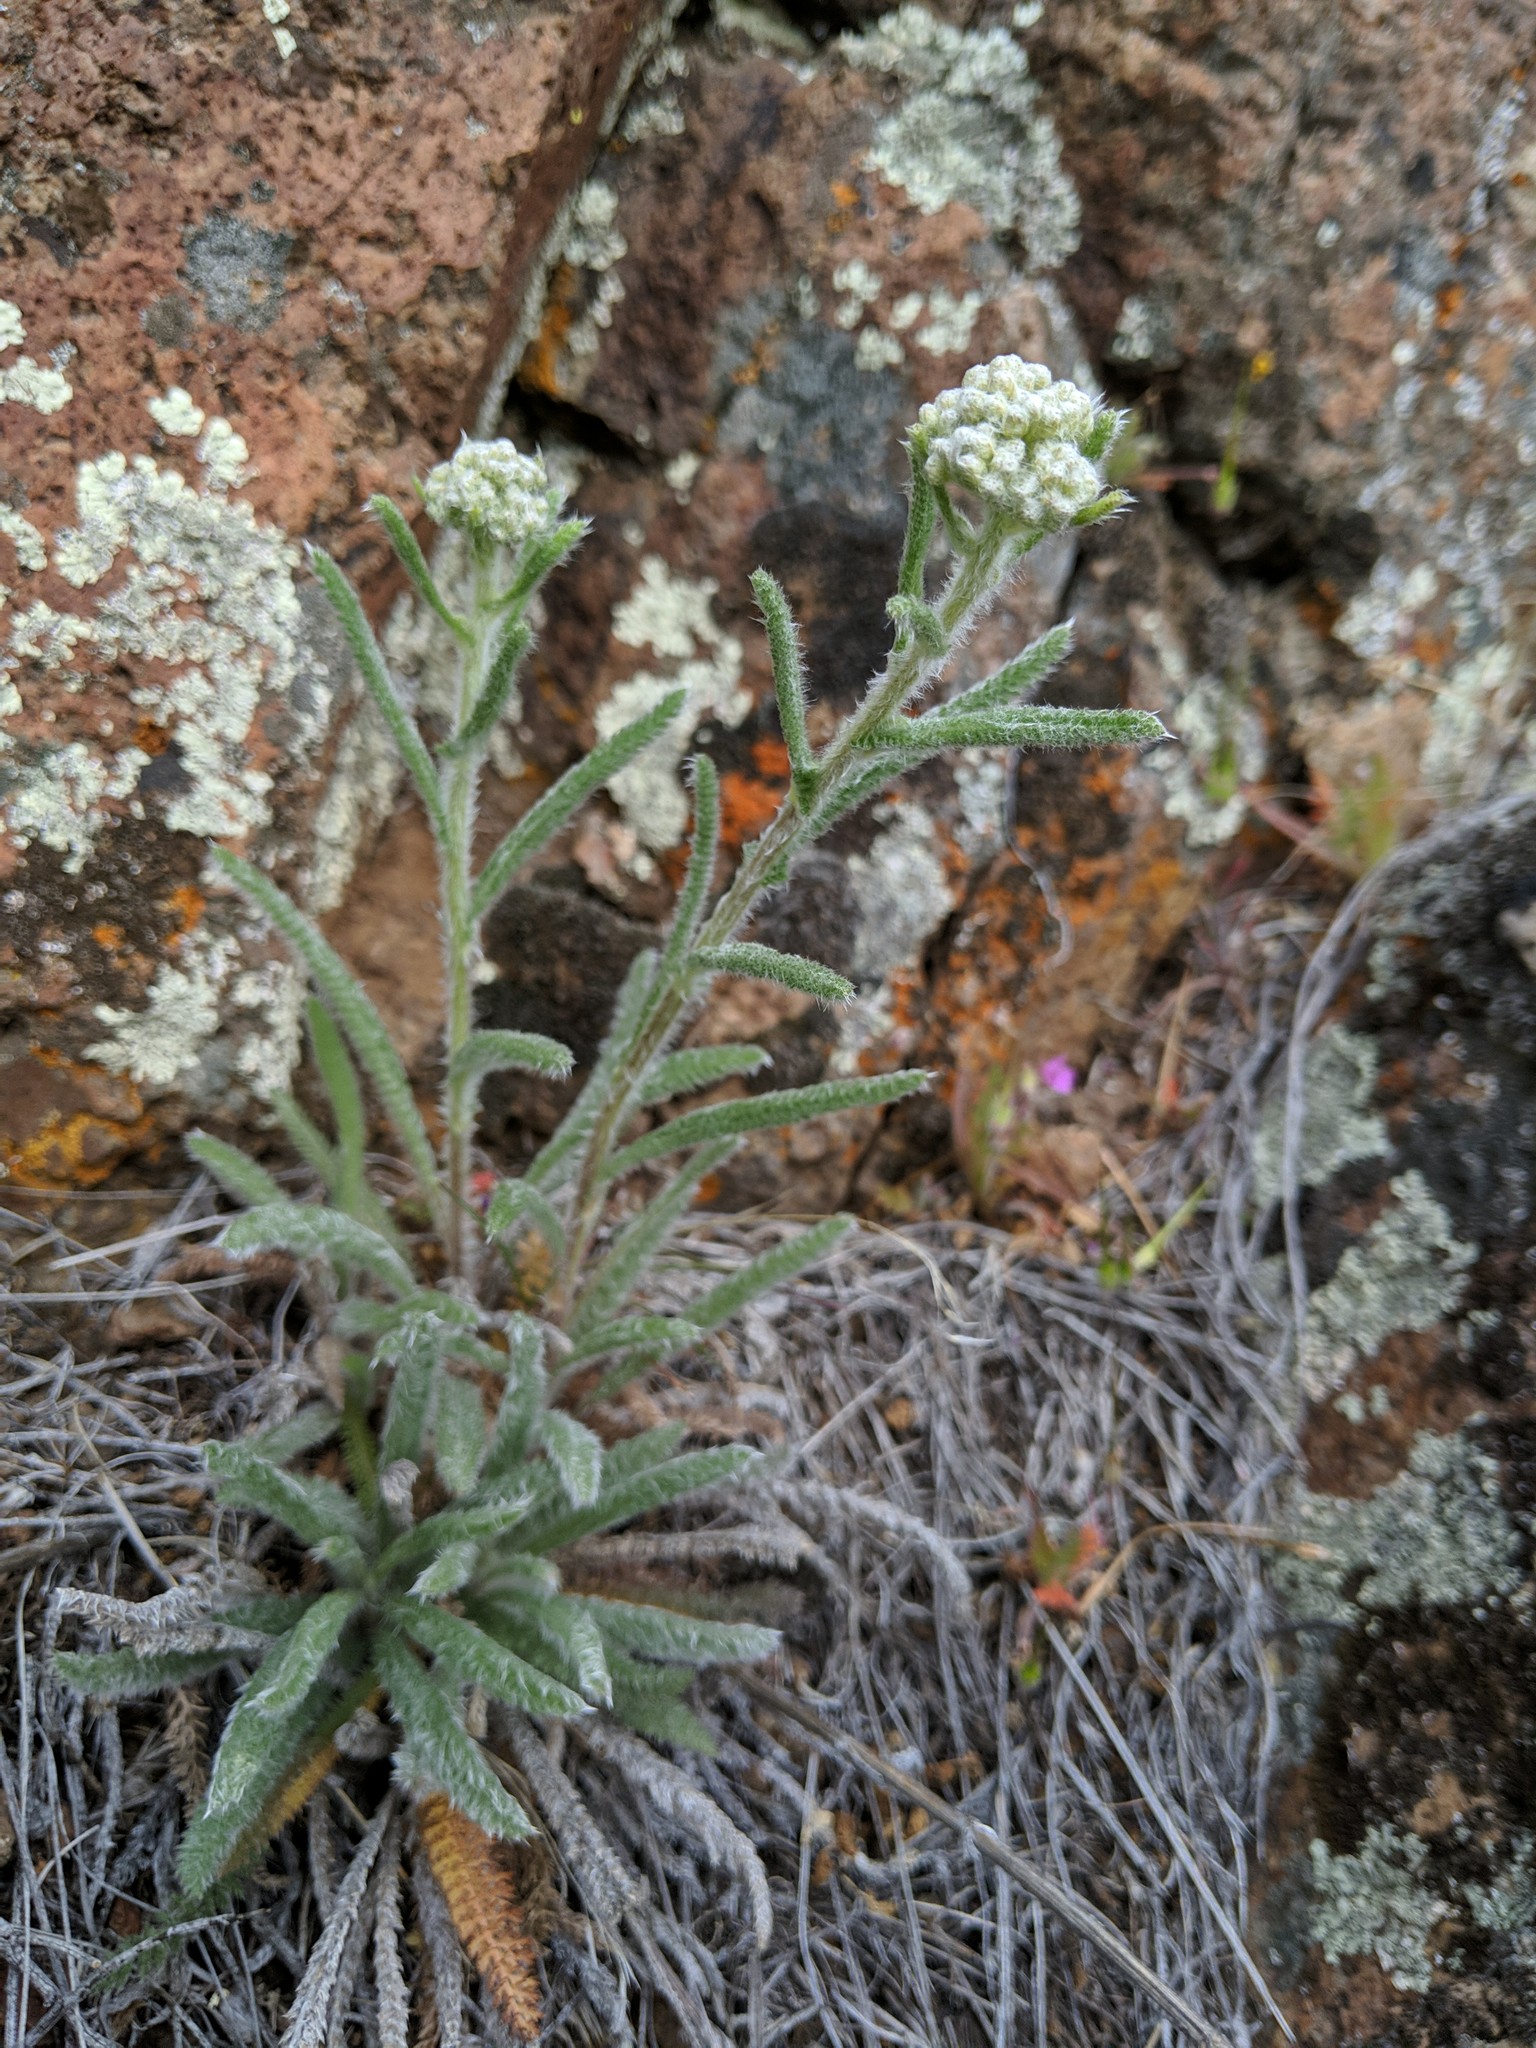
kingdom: Plantae
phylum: Tracheophyta
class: Magnoliopsida
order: Asterales
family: Asteraceae
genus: Achillea
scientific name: Achillea millefolium
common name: Yarrow
